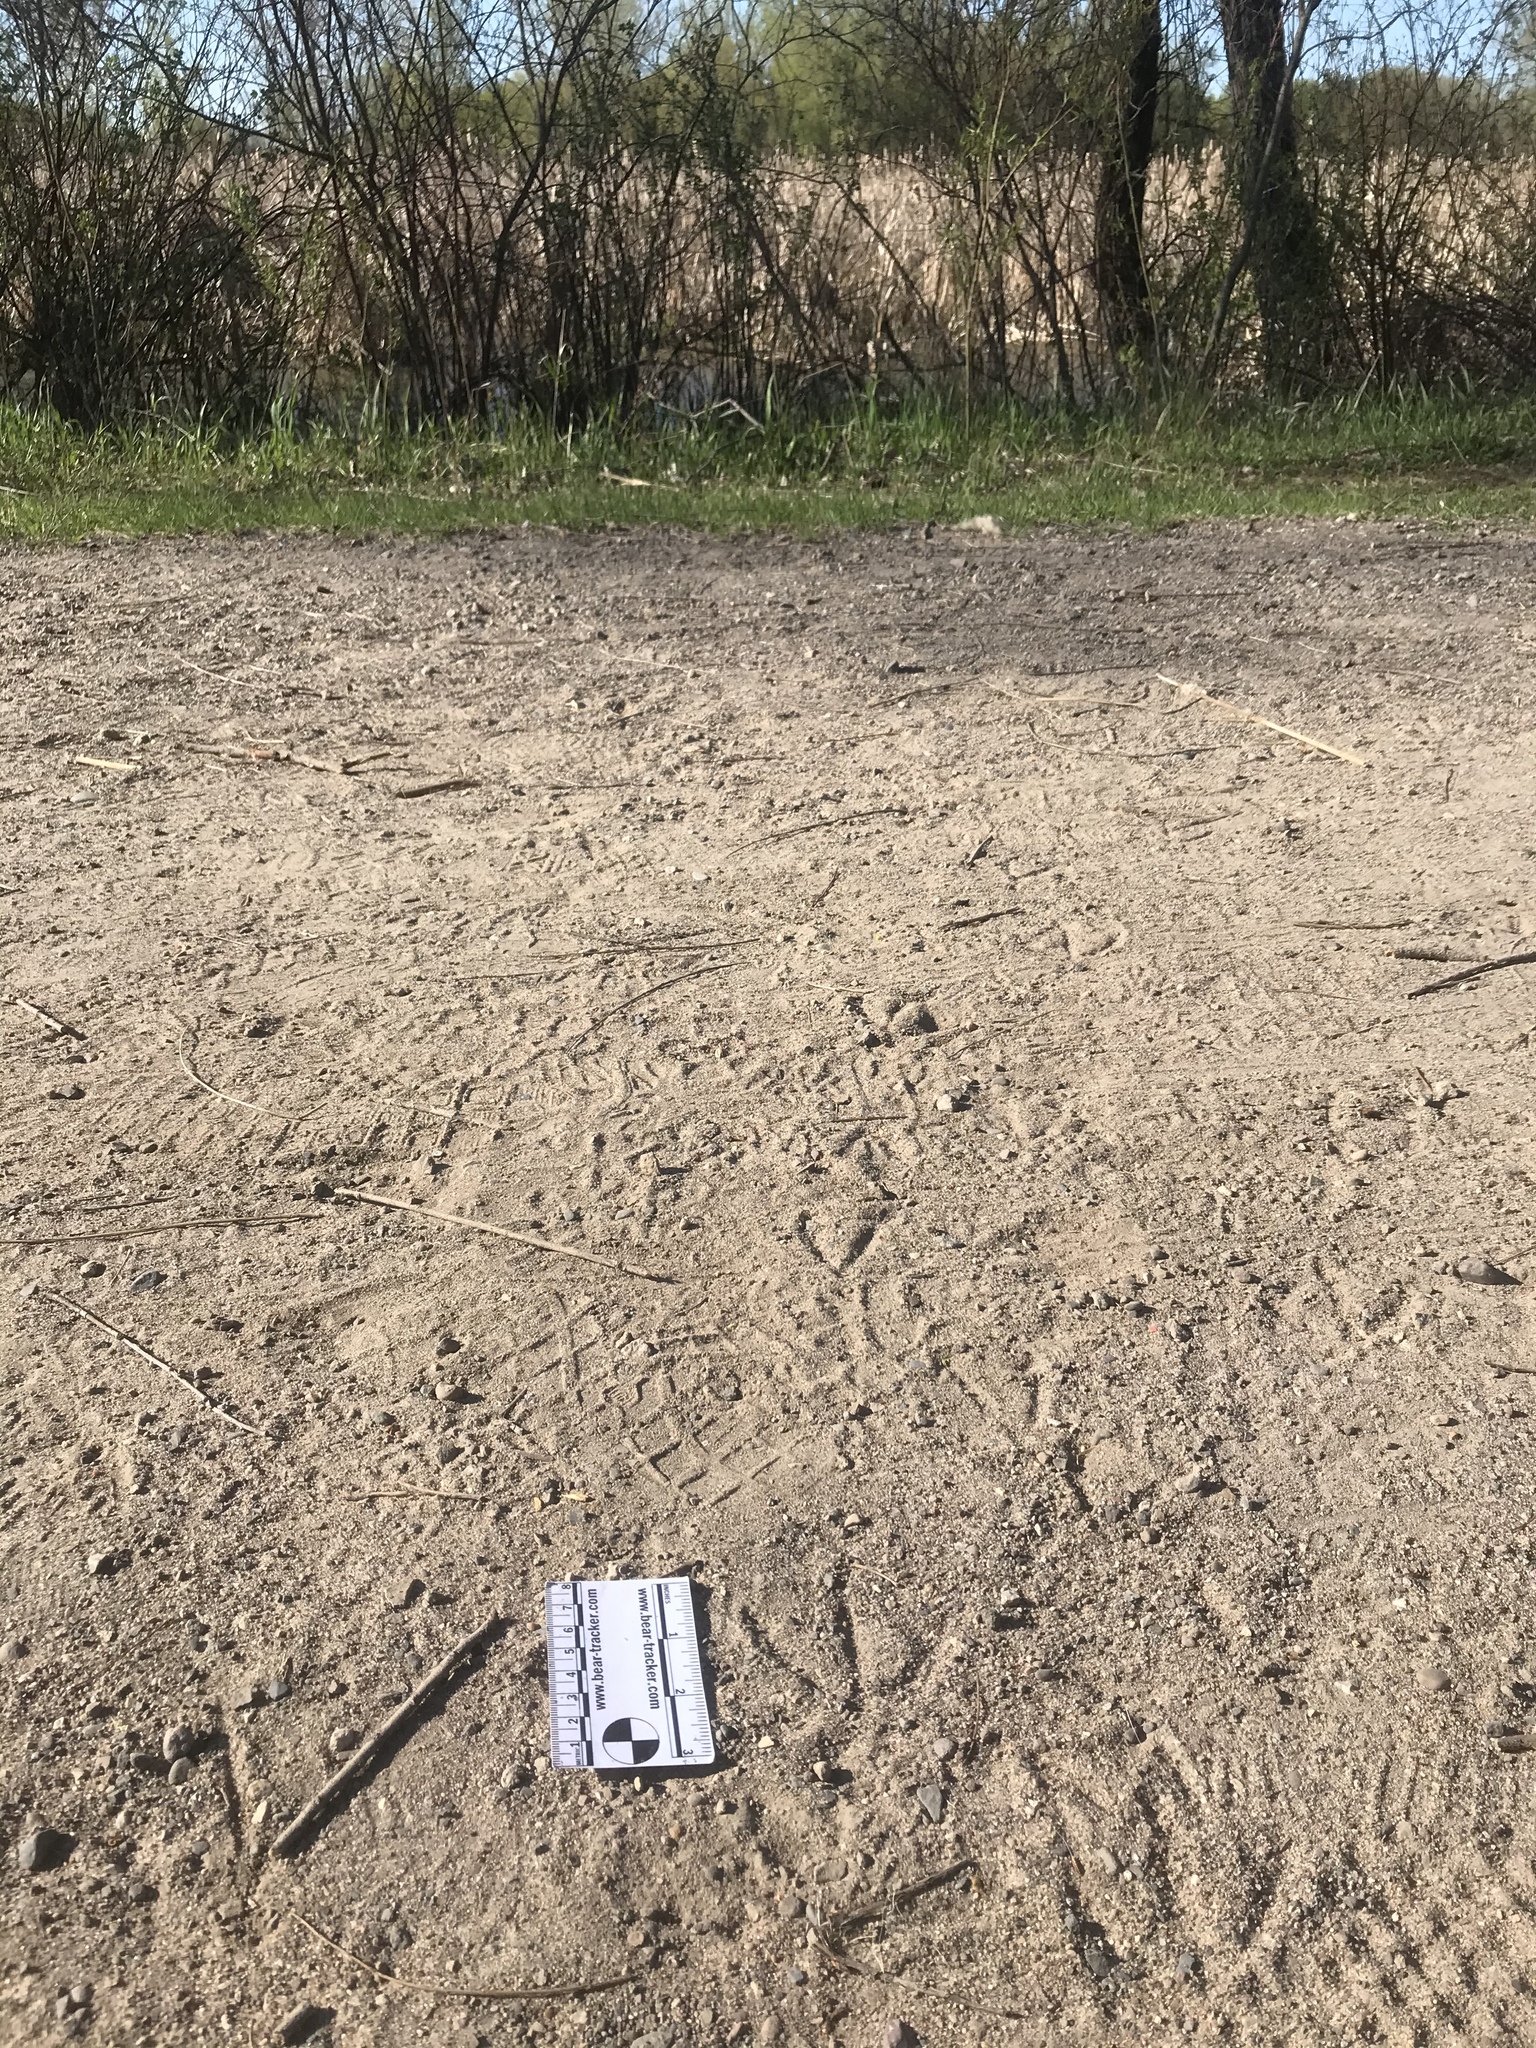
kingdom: Animalia
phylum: Chordata
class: Aves
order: Anseriformes
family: Anatidae
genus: Anas
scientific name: Anas platyrhynchos
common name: Mallard
